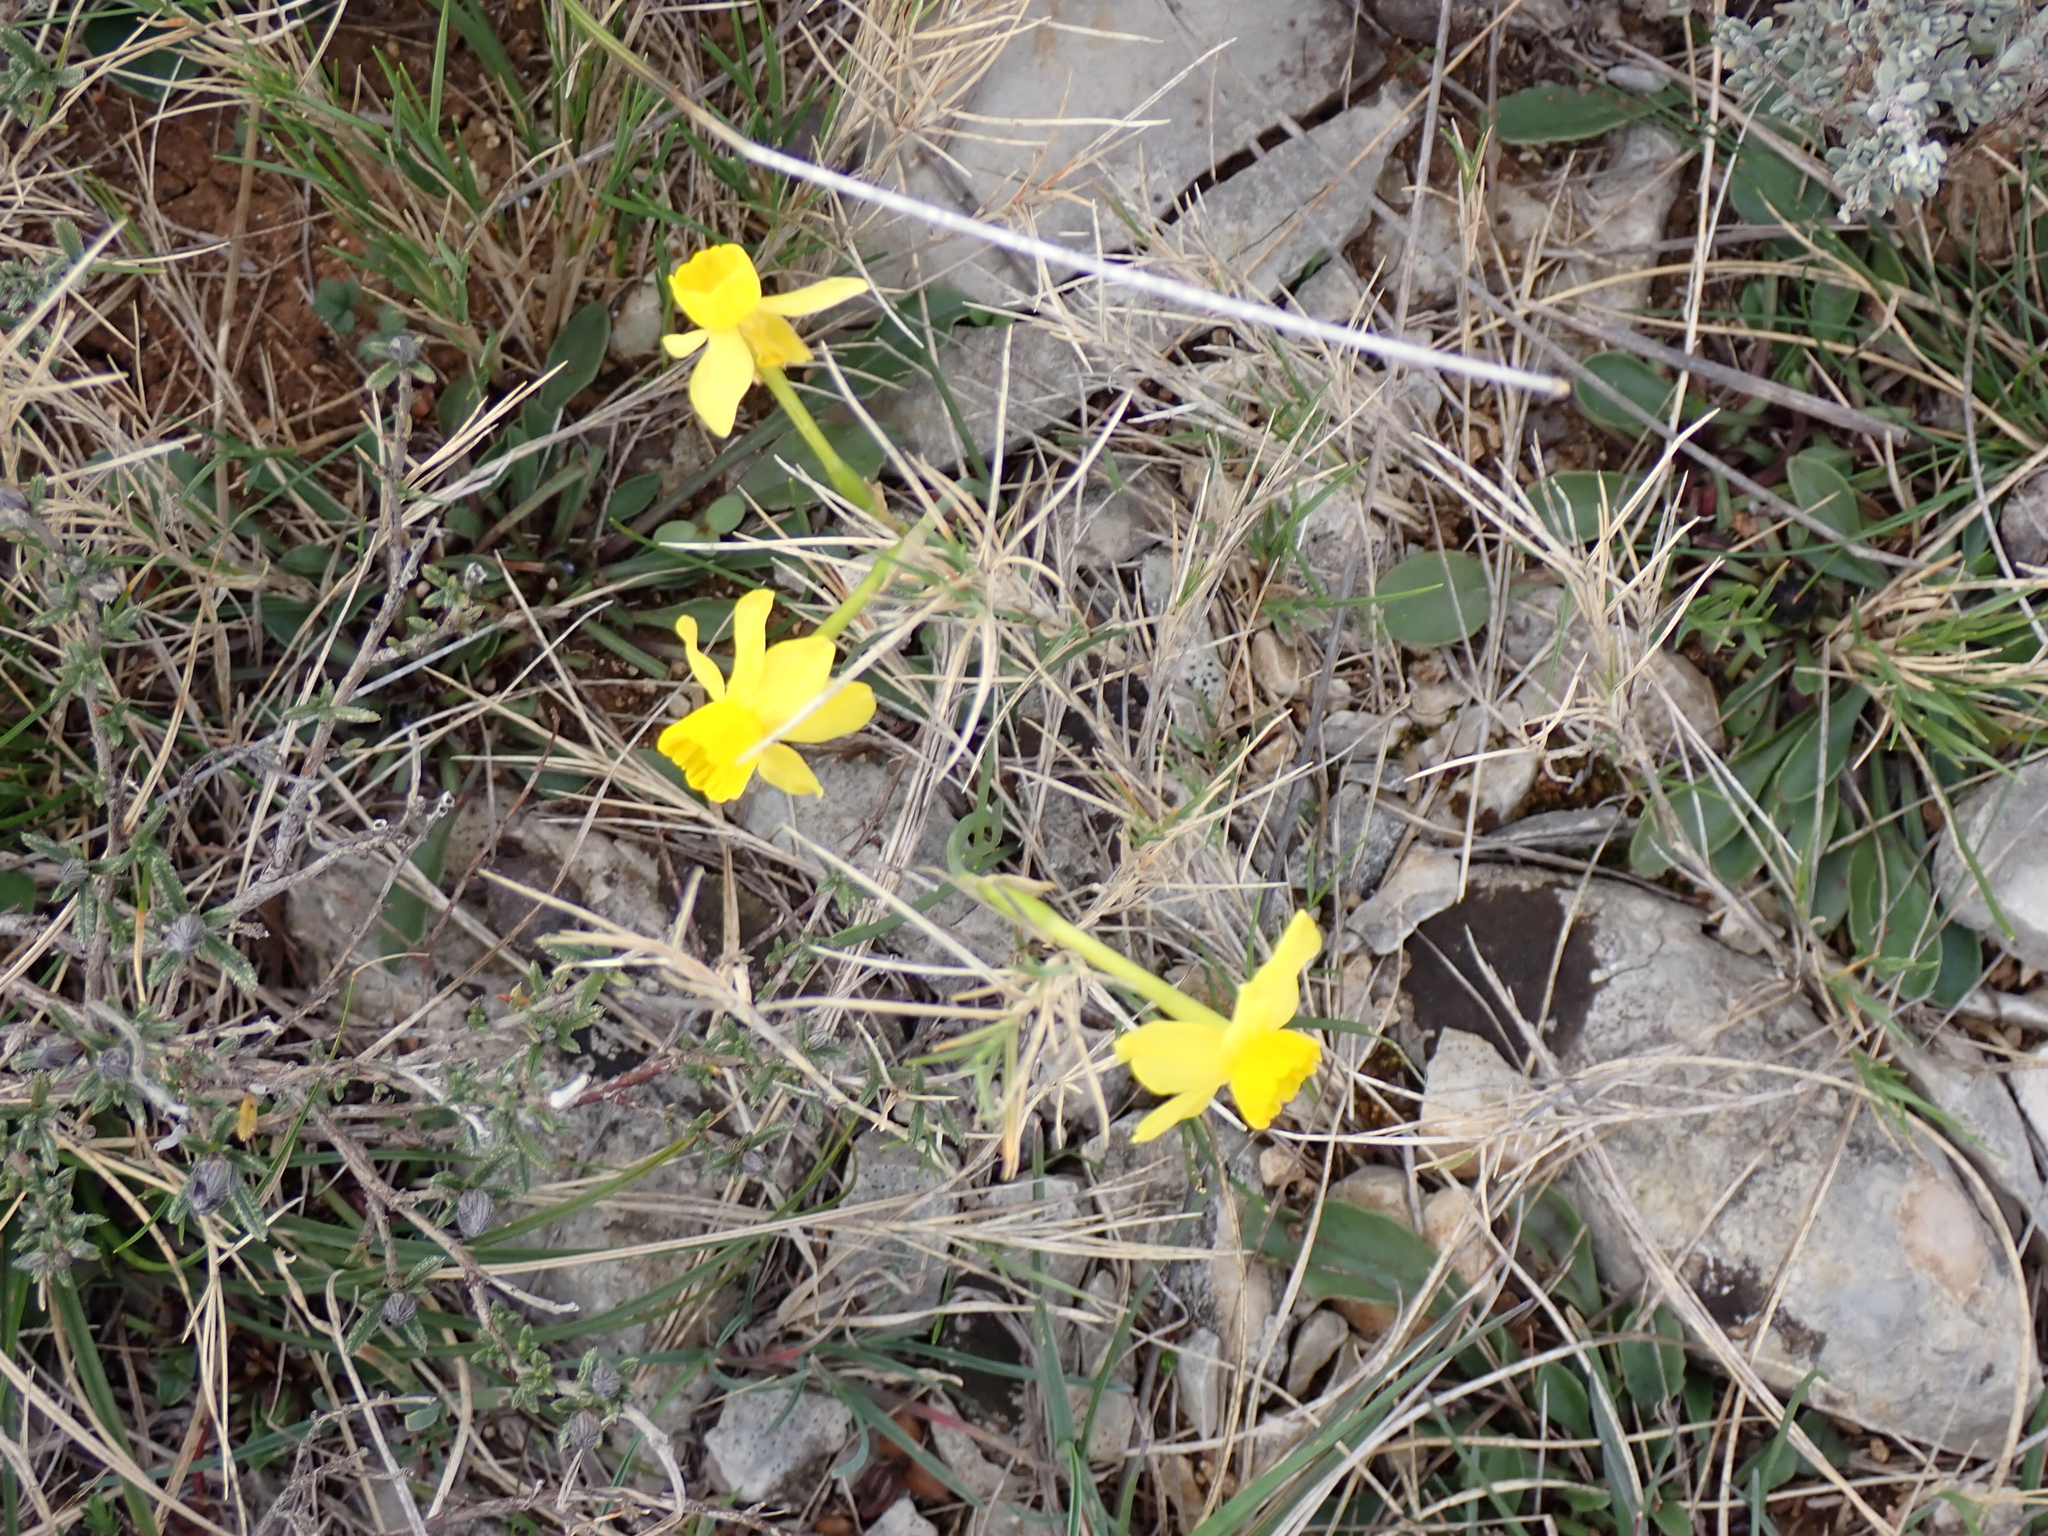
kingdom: Plantae
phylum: Tracheophyta
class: Liliopsida
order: Asparagales
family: Amaryllidaceae
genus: Narcissus
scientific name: Narcissus assoanus
